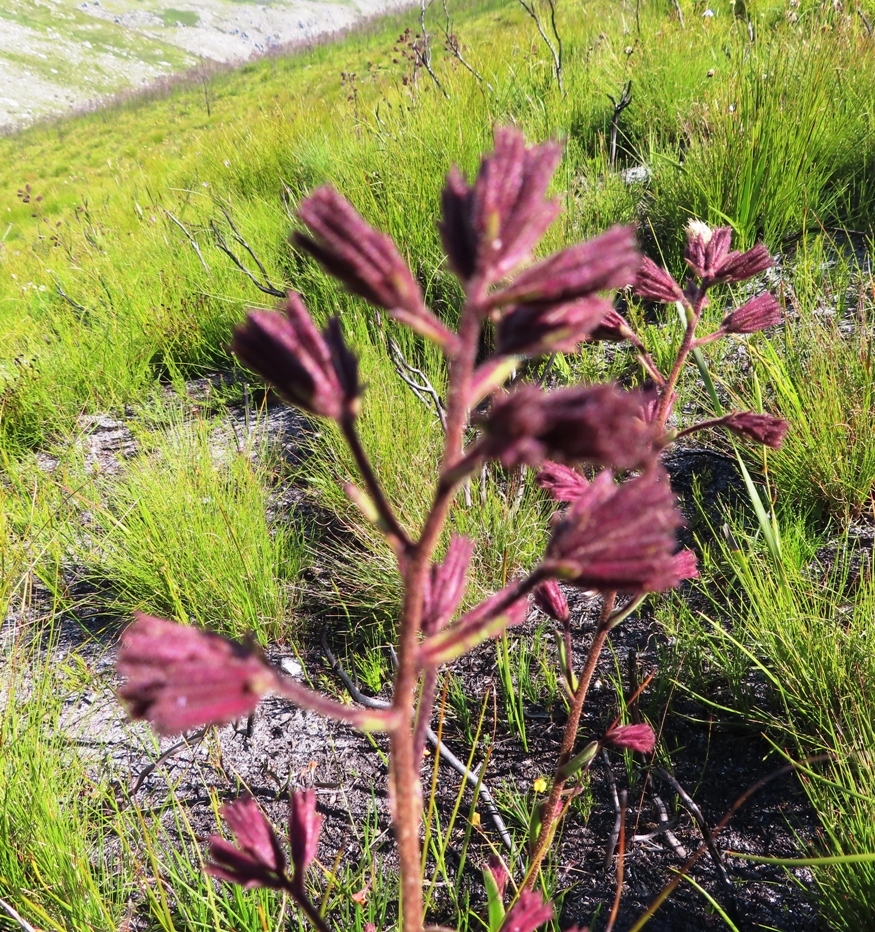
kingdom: Plantae
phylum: Tracheophyta
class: Magnoliopsida
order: Asterales
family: Asteraceae
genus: Corymbium
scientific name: Corymbium congestum
